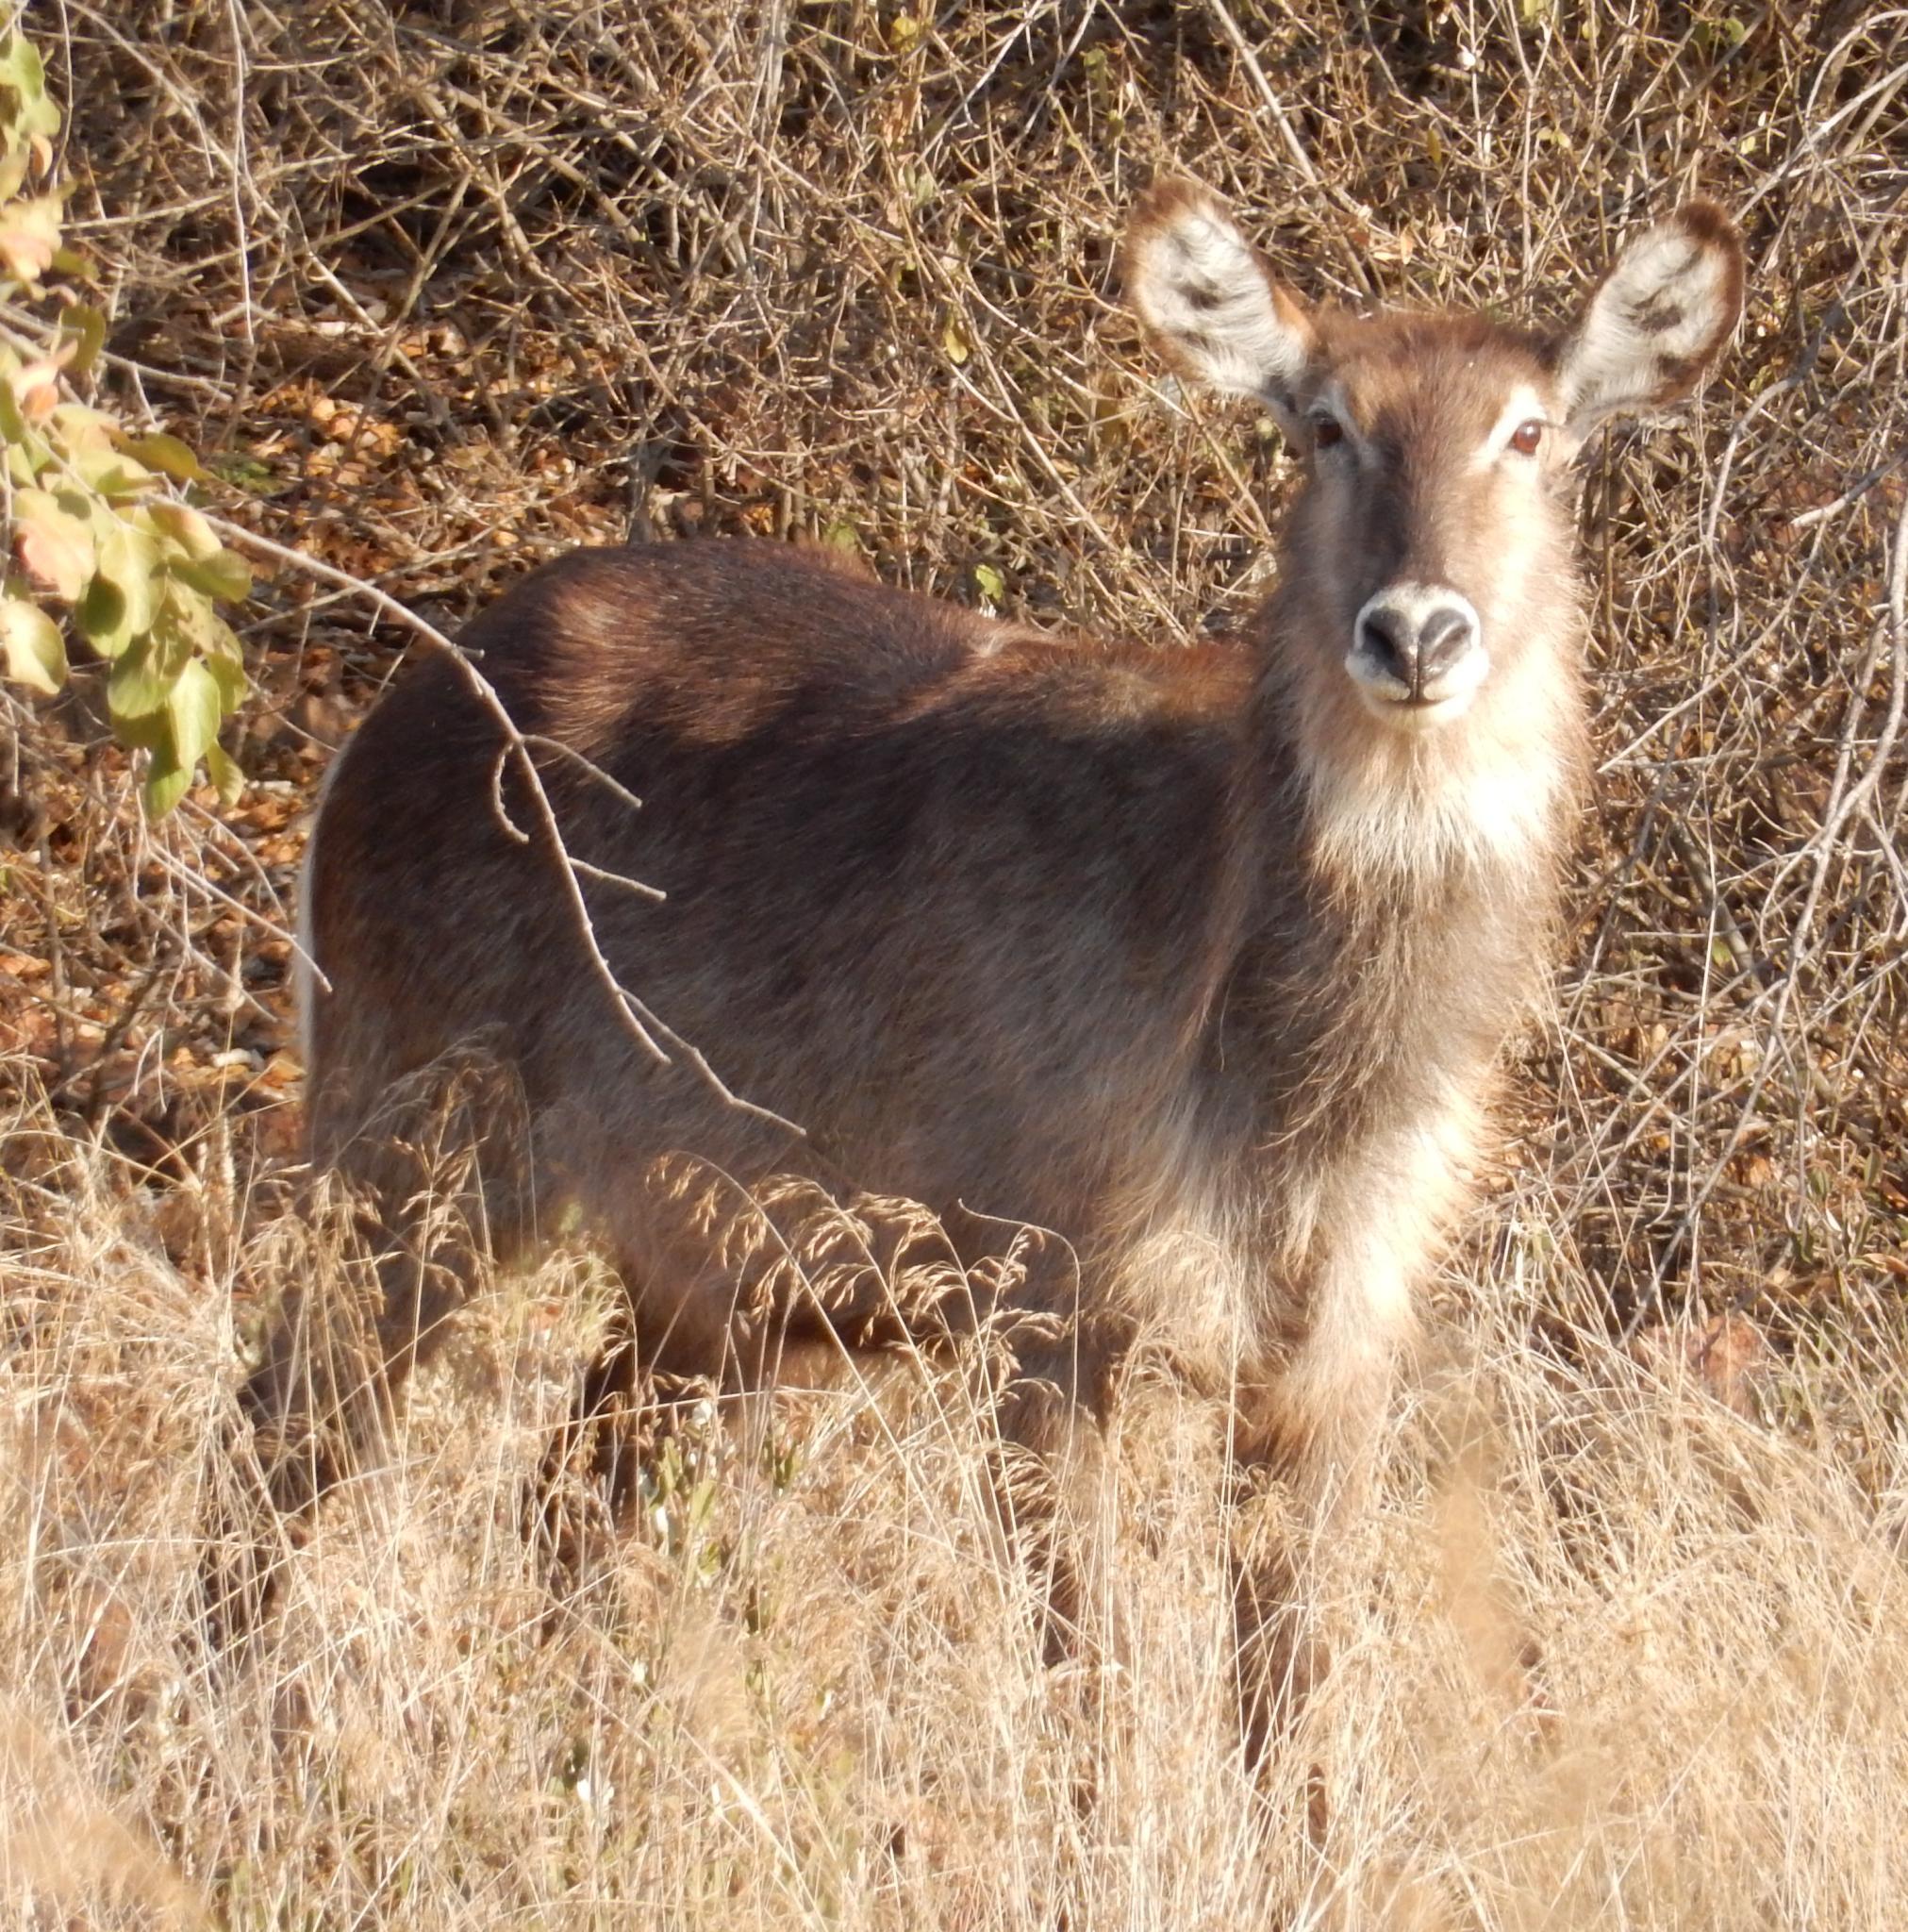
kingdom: Animalia
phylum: Chordata
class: Mammalia
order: Artiodactyla
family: Bovidae
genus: Kobus
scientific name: Kobus ellipsiprymnus
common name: Waterbuck
